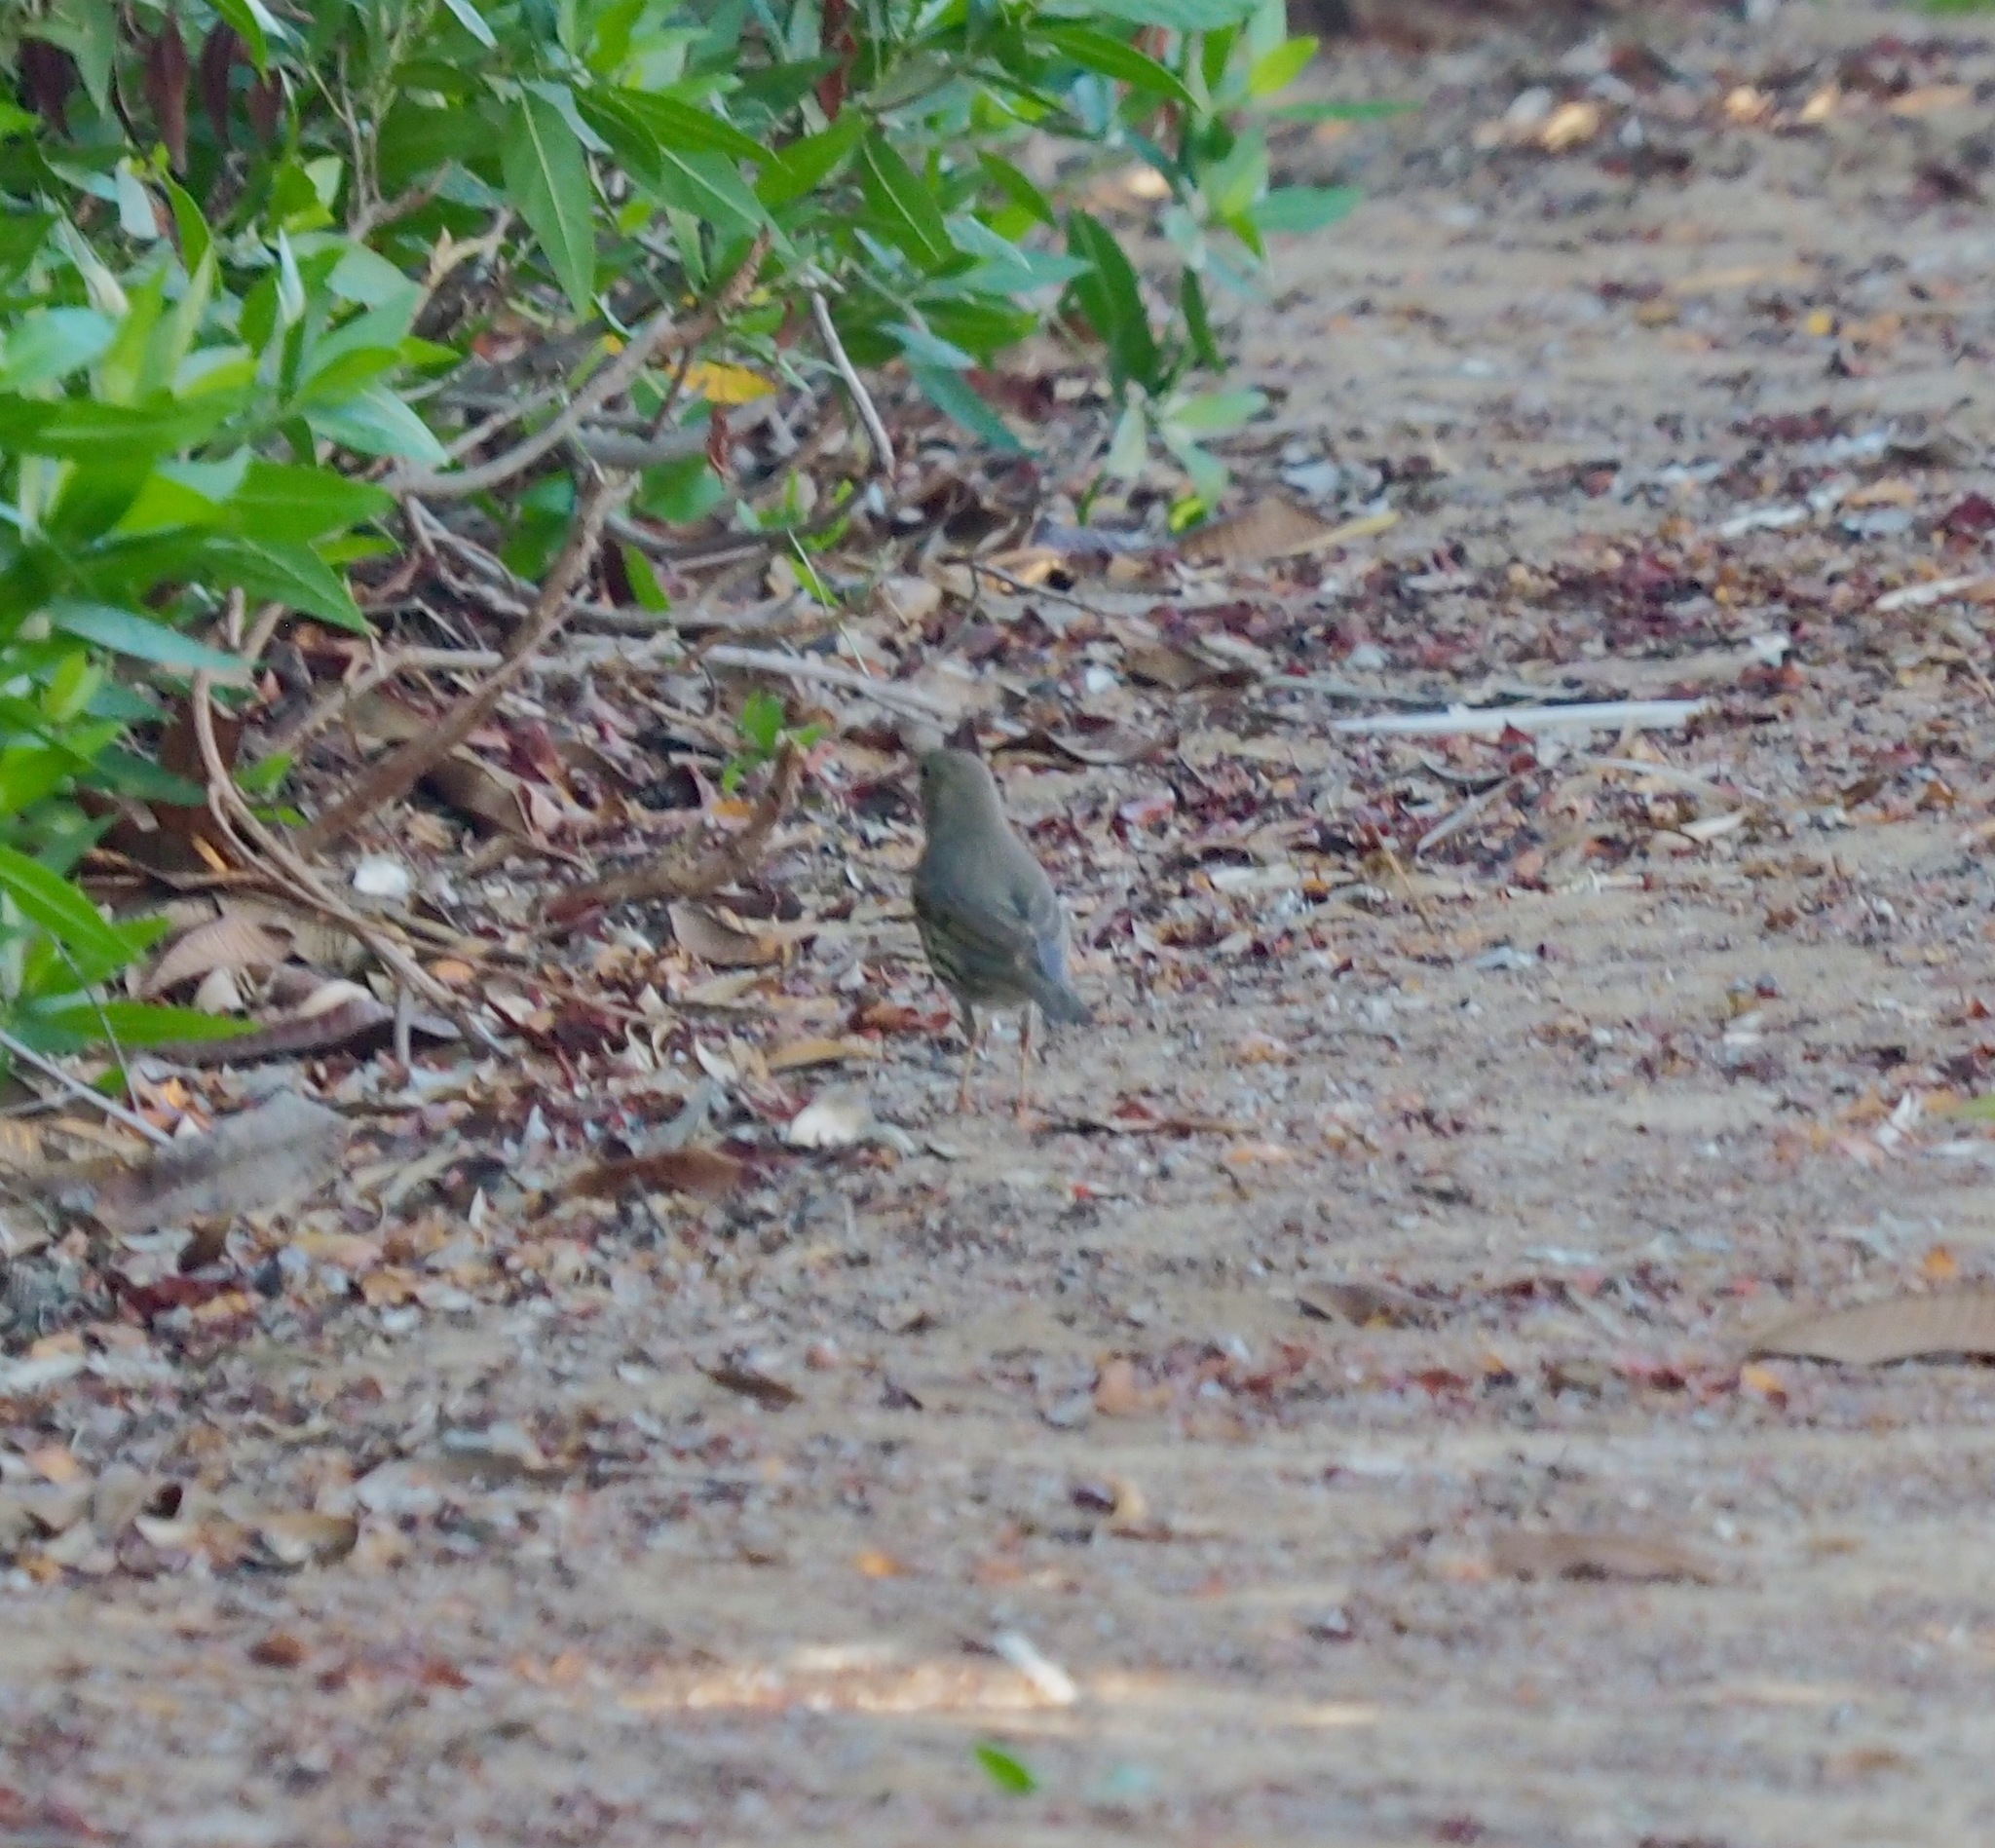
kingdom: Animalia
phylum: Chordata
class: Aves
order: Passeriformes
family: Turdidae
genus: Turdus
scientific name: Turdus philomelos
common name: Song thrush
